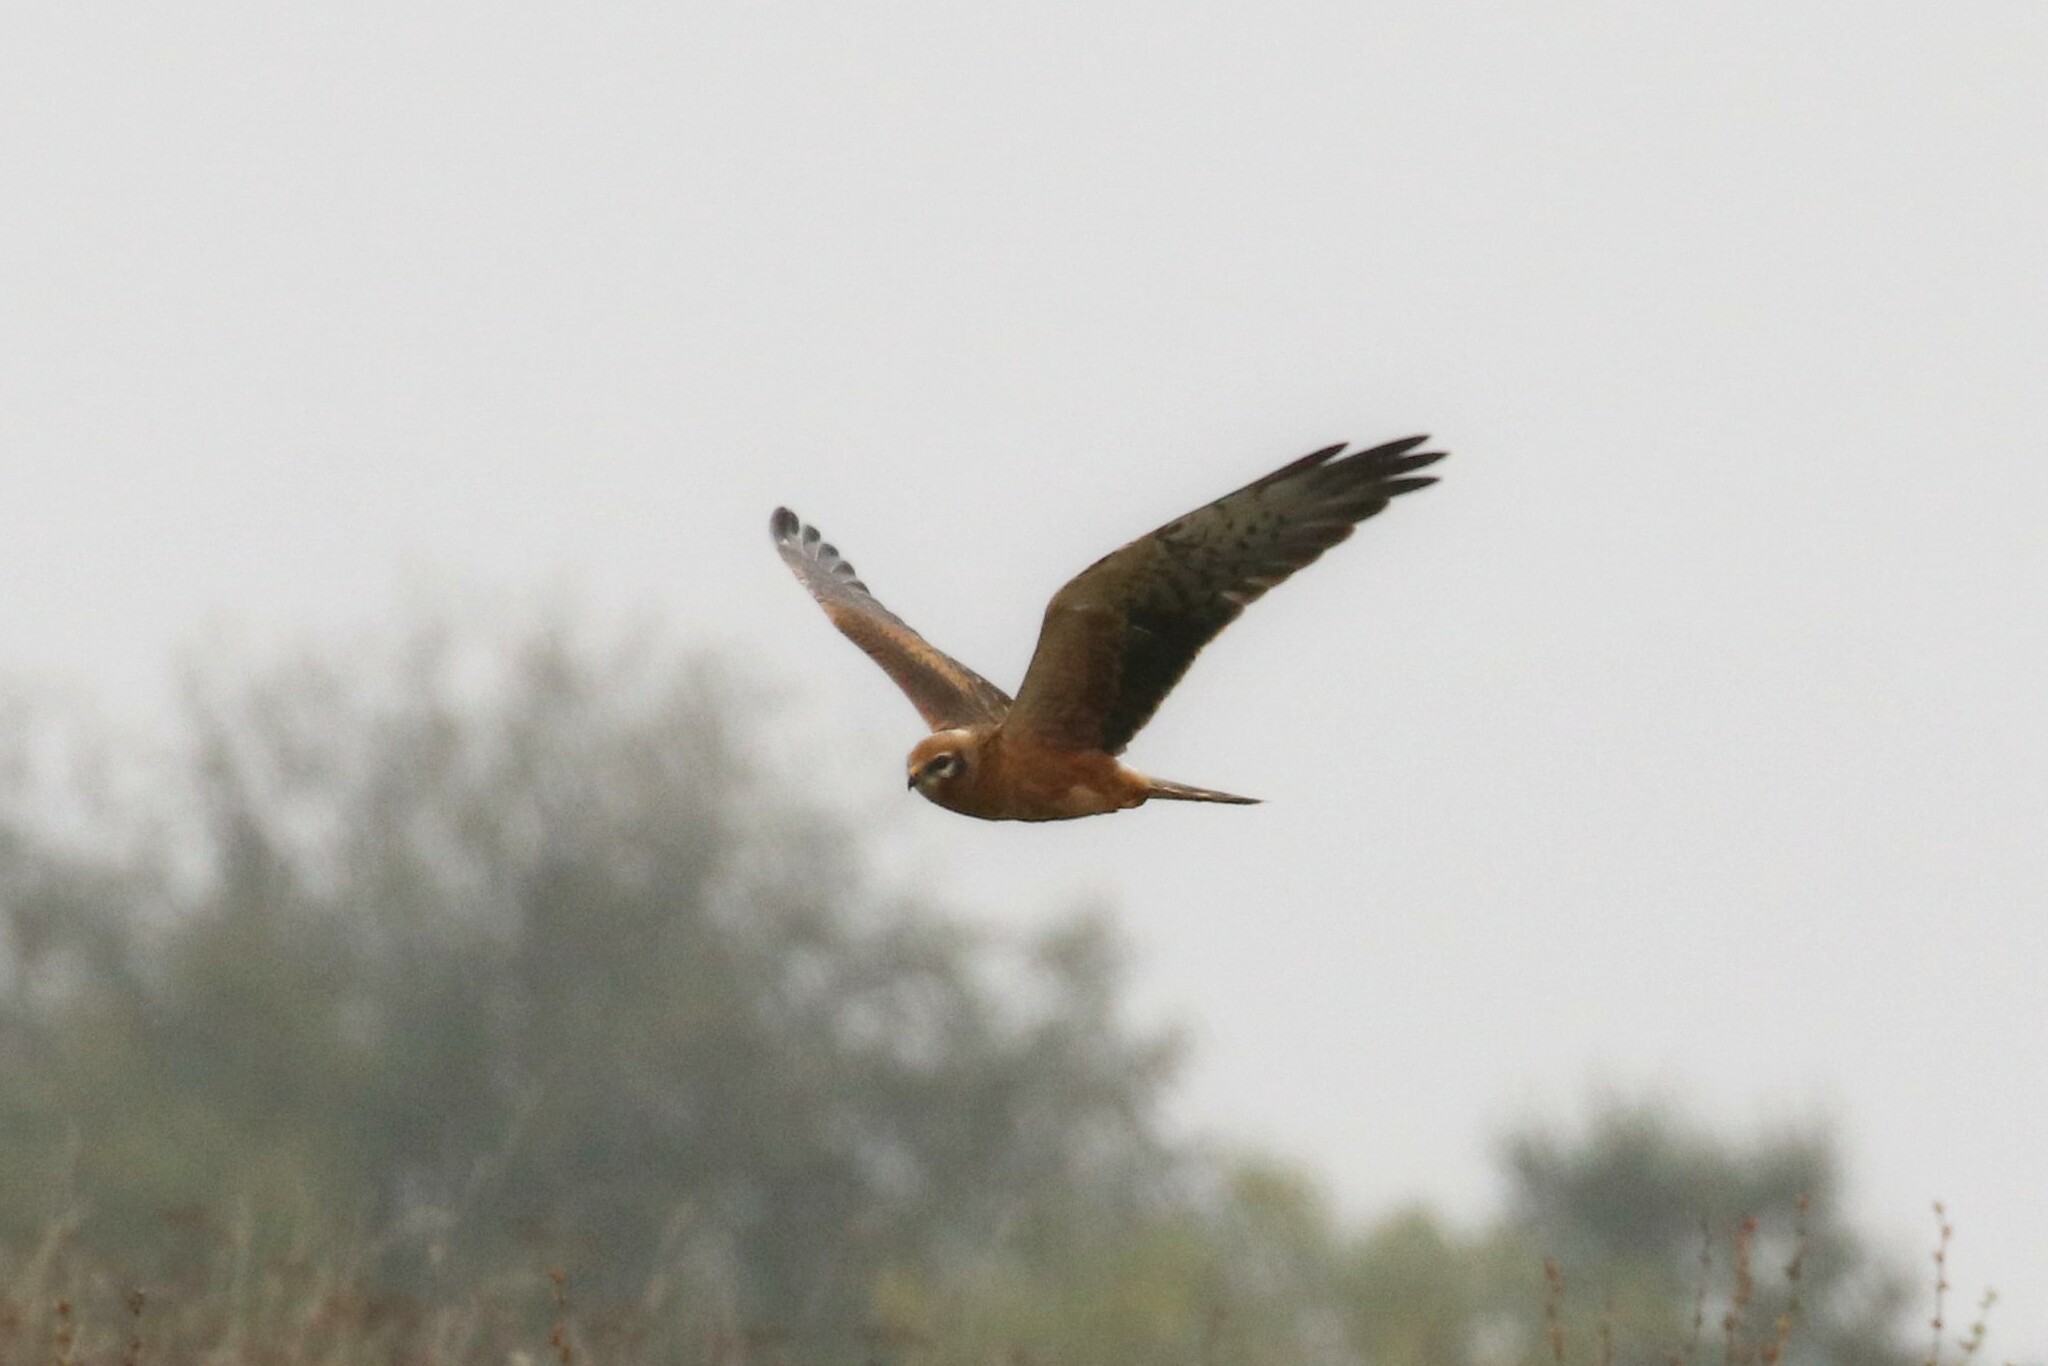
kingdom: Animalia
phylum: Chordata
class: Aves
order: Accipitriformes
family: Accipitridae
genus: Circus
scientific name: Circus pygargus
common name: Montagu's harrier
